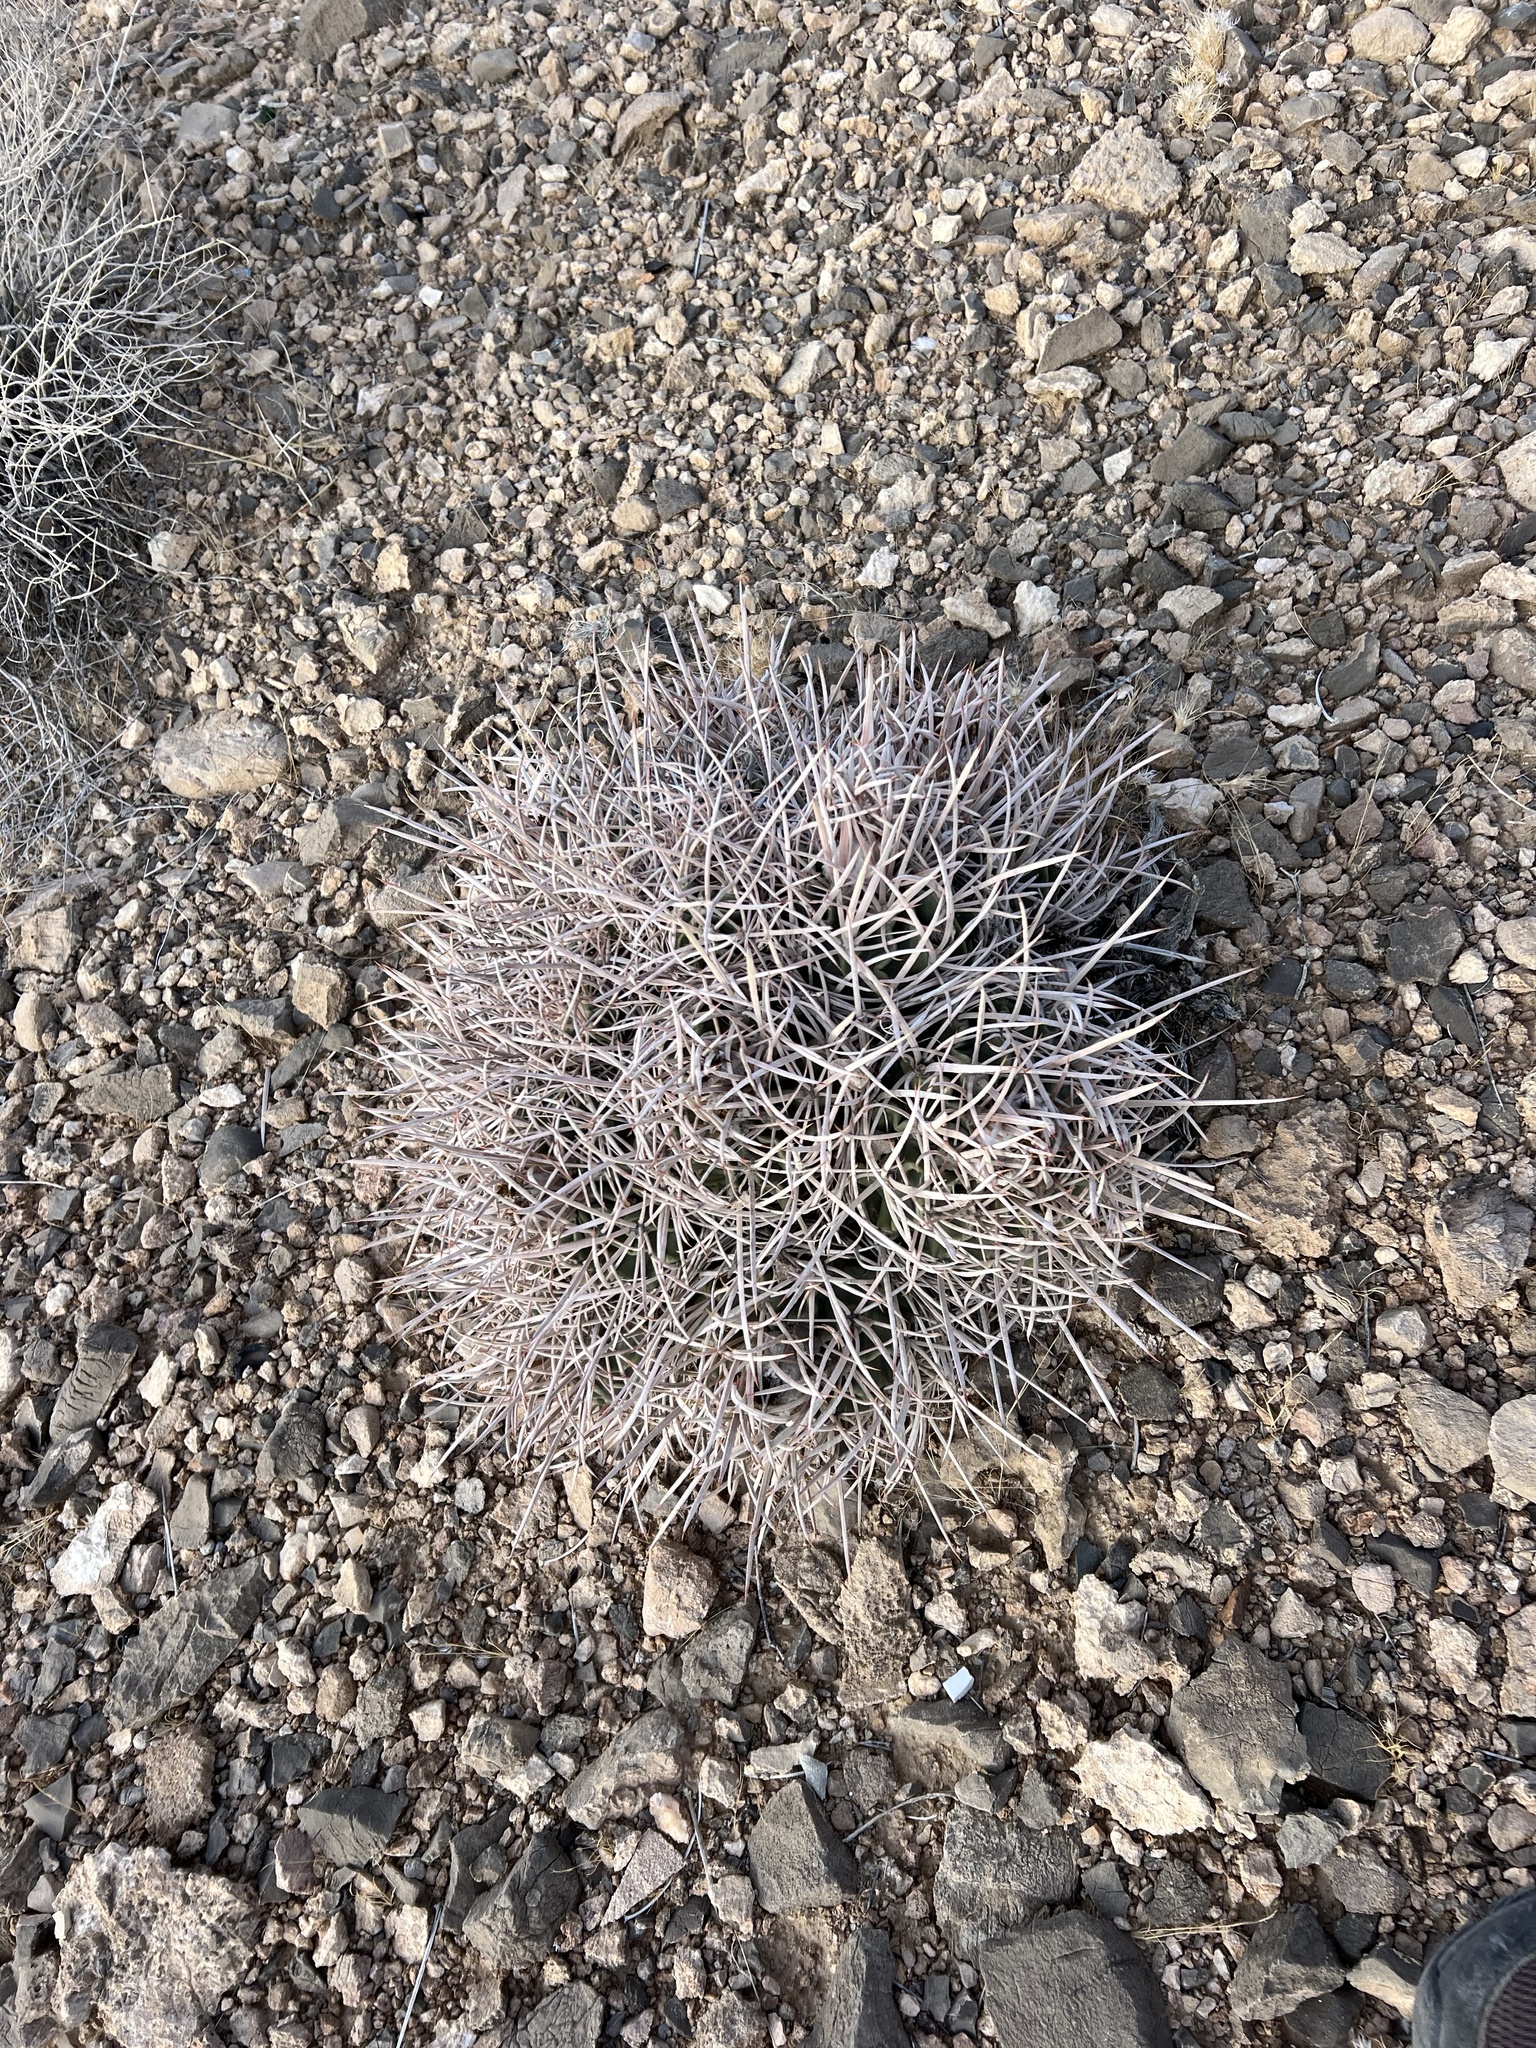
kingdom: Plantae
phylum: Tracheophyta
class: Magnoliopsida
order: Caryophyllales
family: Cactaceae
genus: Echinocactus
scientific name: Echinocactus polycephalus
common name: Cottontop cactus
